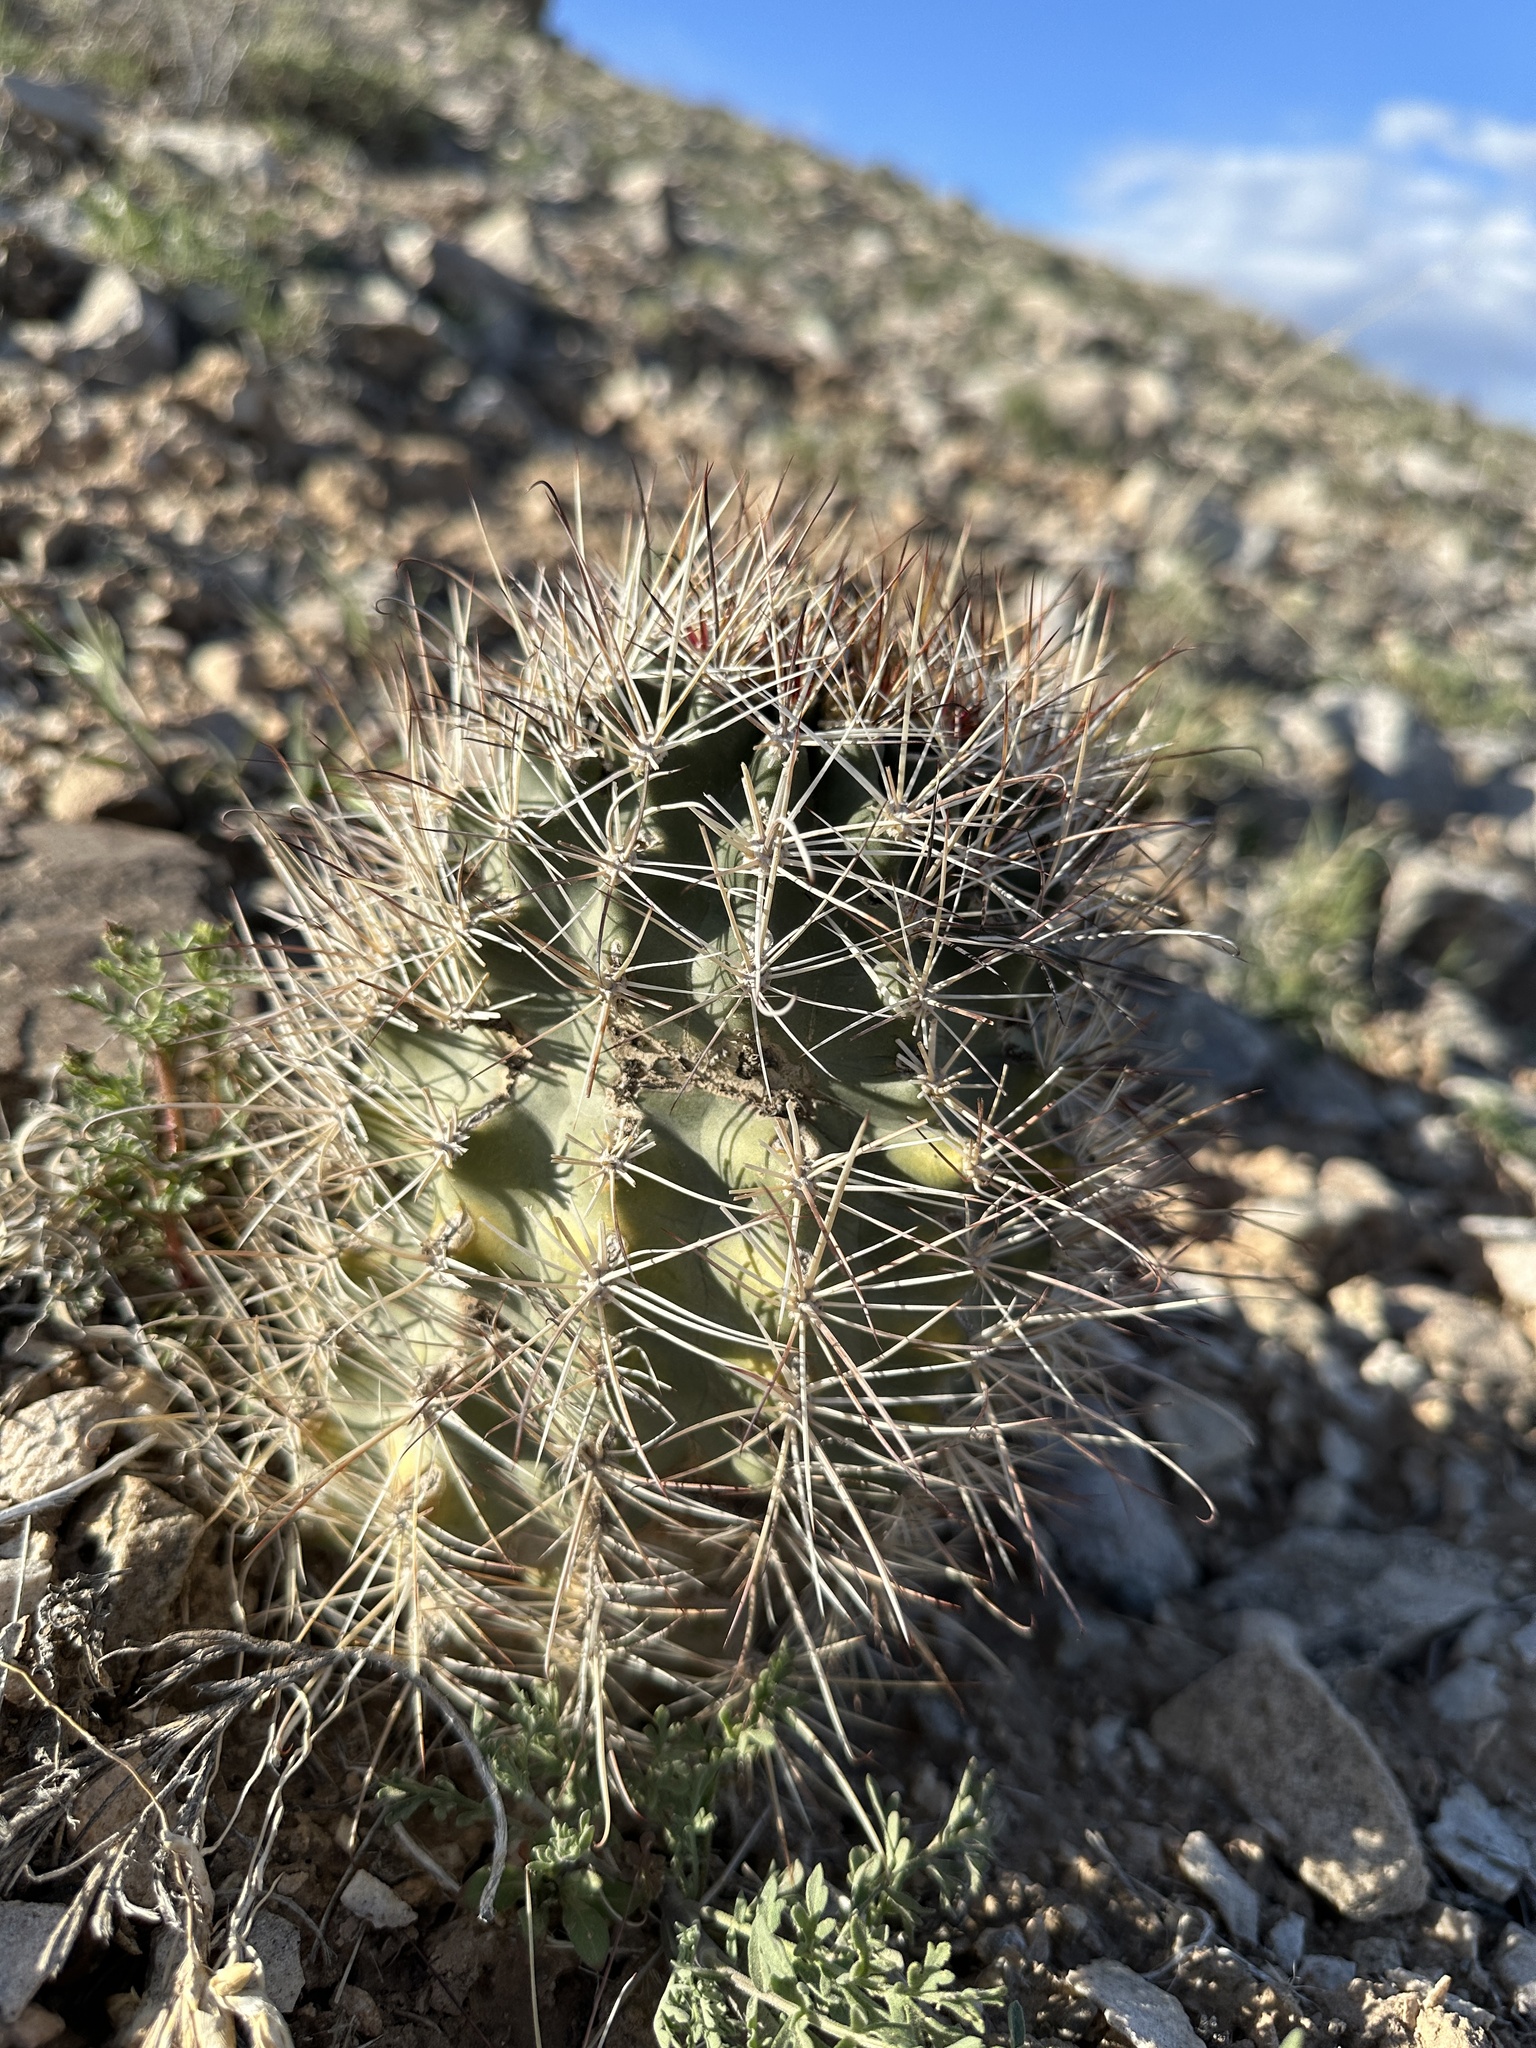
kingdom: Plantae
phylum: Tracheophyta
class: Magnoliopsida
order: Caryophyllales
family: Cactaceae
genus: Sclerocactus
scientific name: Sclerocactus parviflorus
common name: Small-flower fishhook cactus
